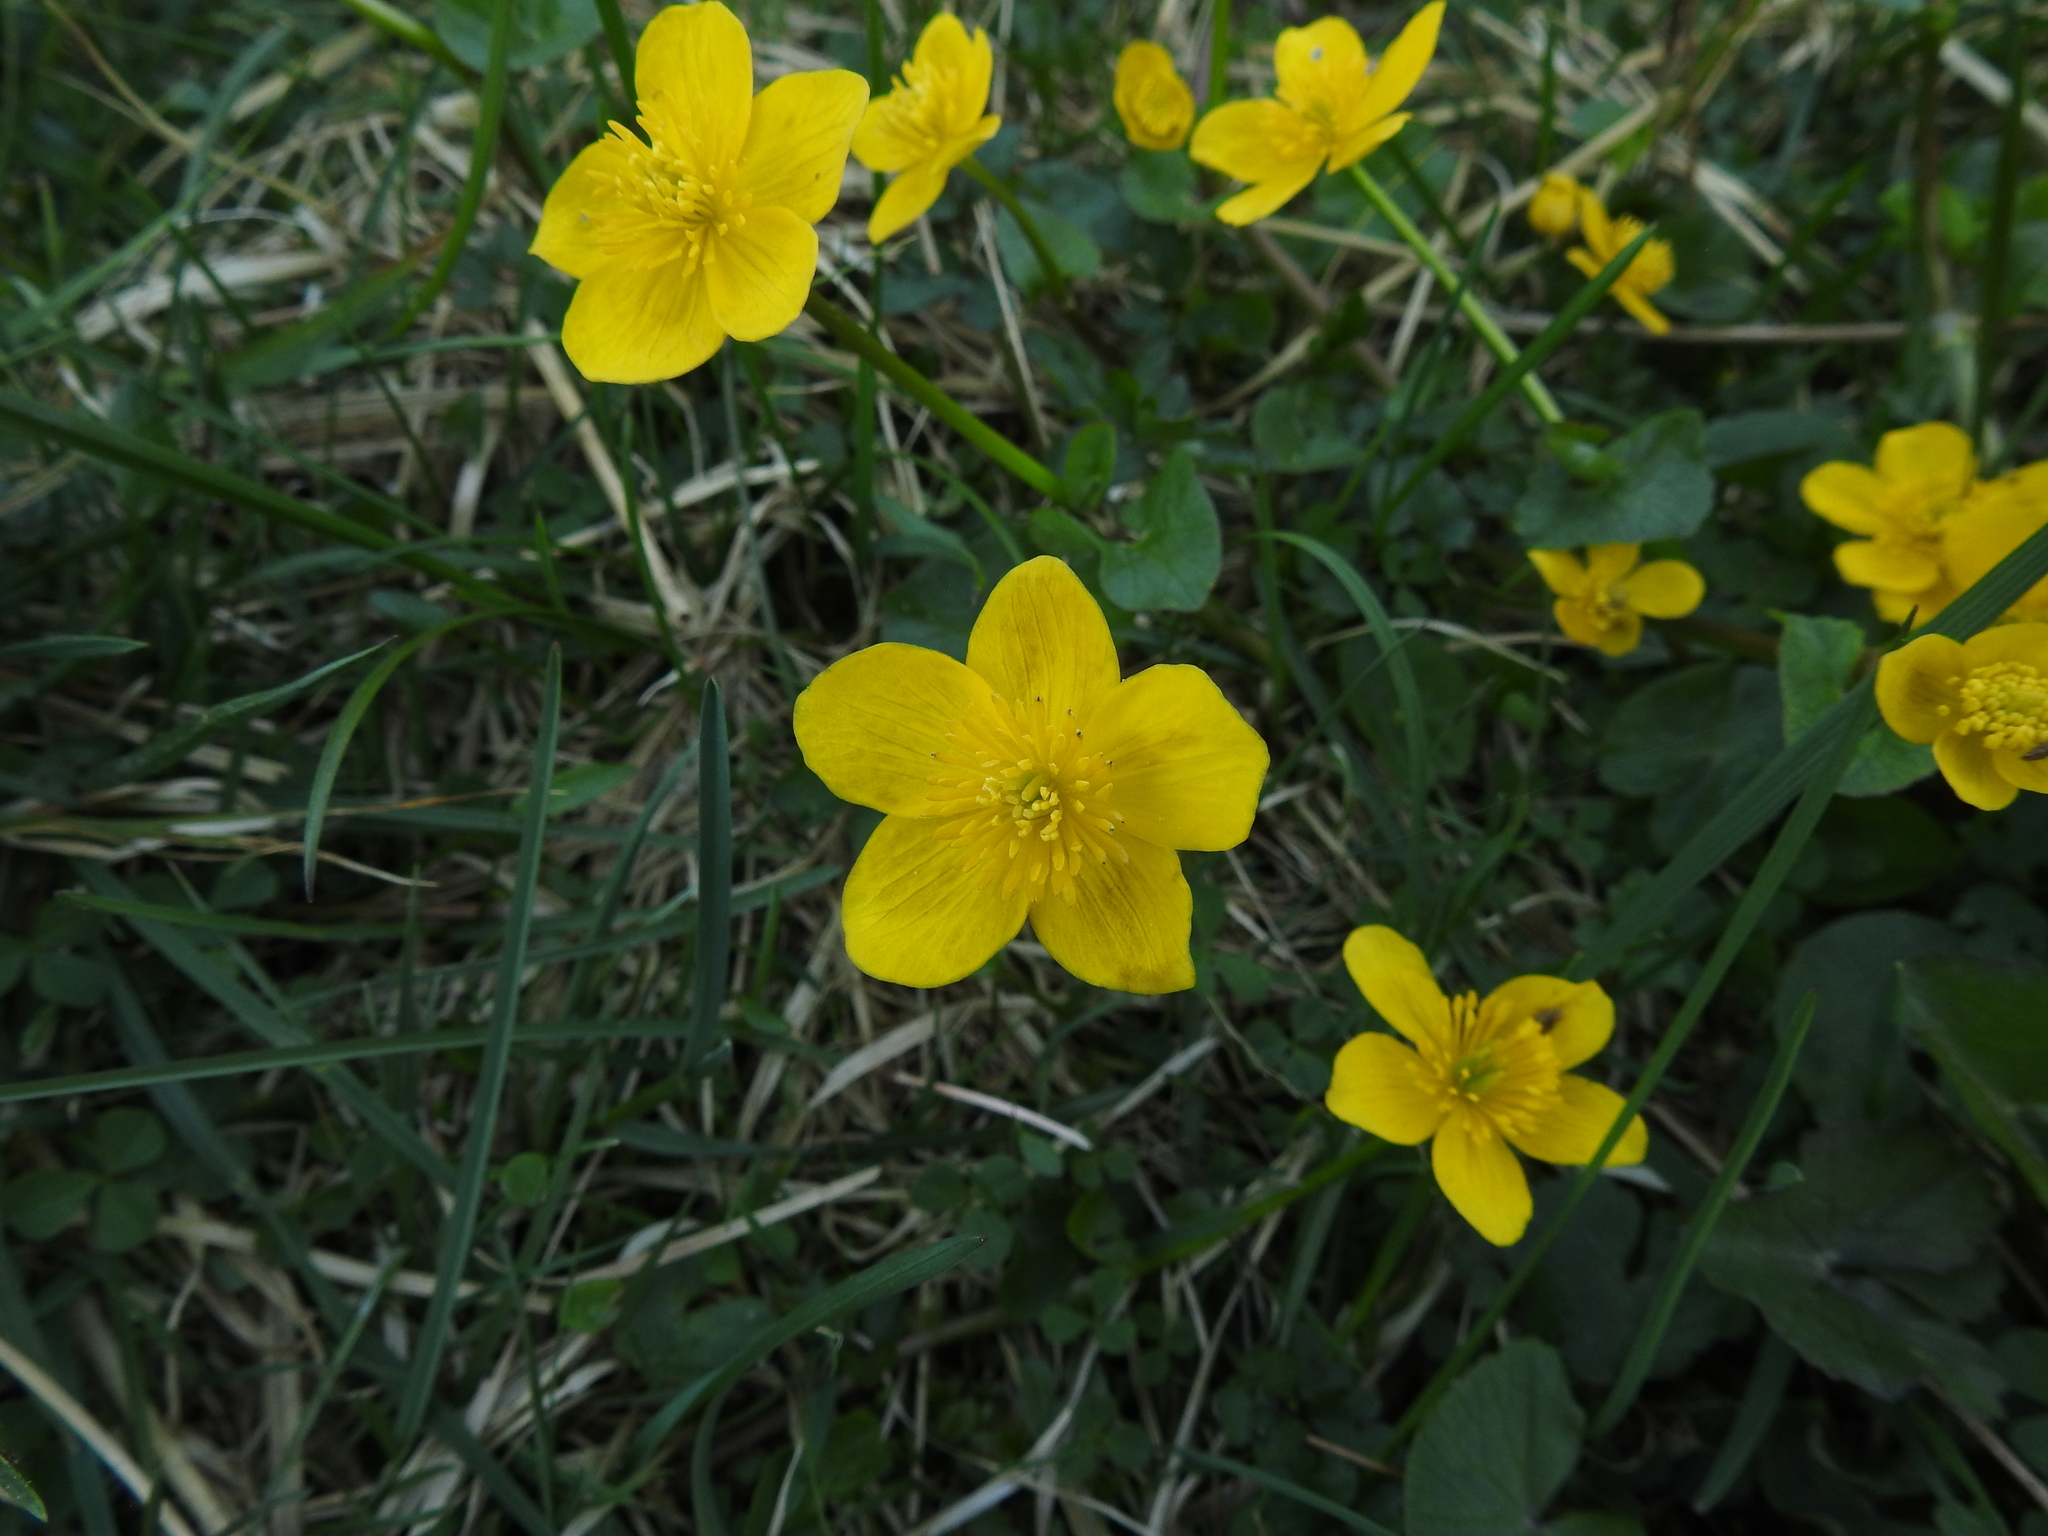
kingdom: Plantae
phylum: Tracheophyta
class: Magnoliopsida
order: Ranunculales
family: Ranunculaceae
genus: Caltha
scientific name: Caltha palustris
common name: Marsh marigold
